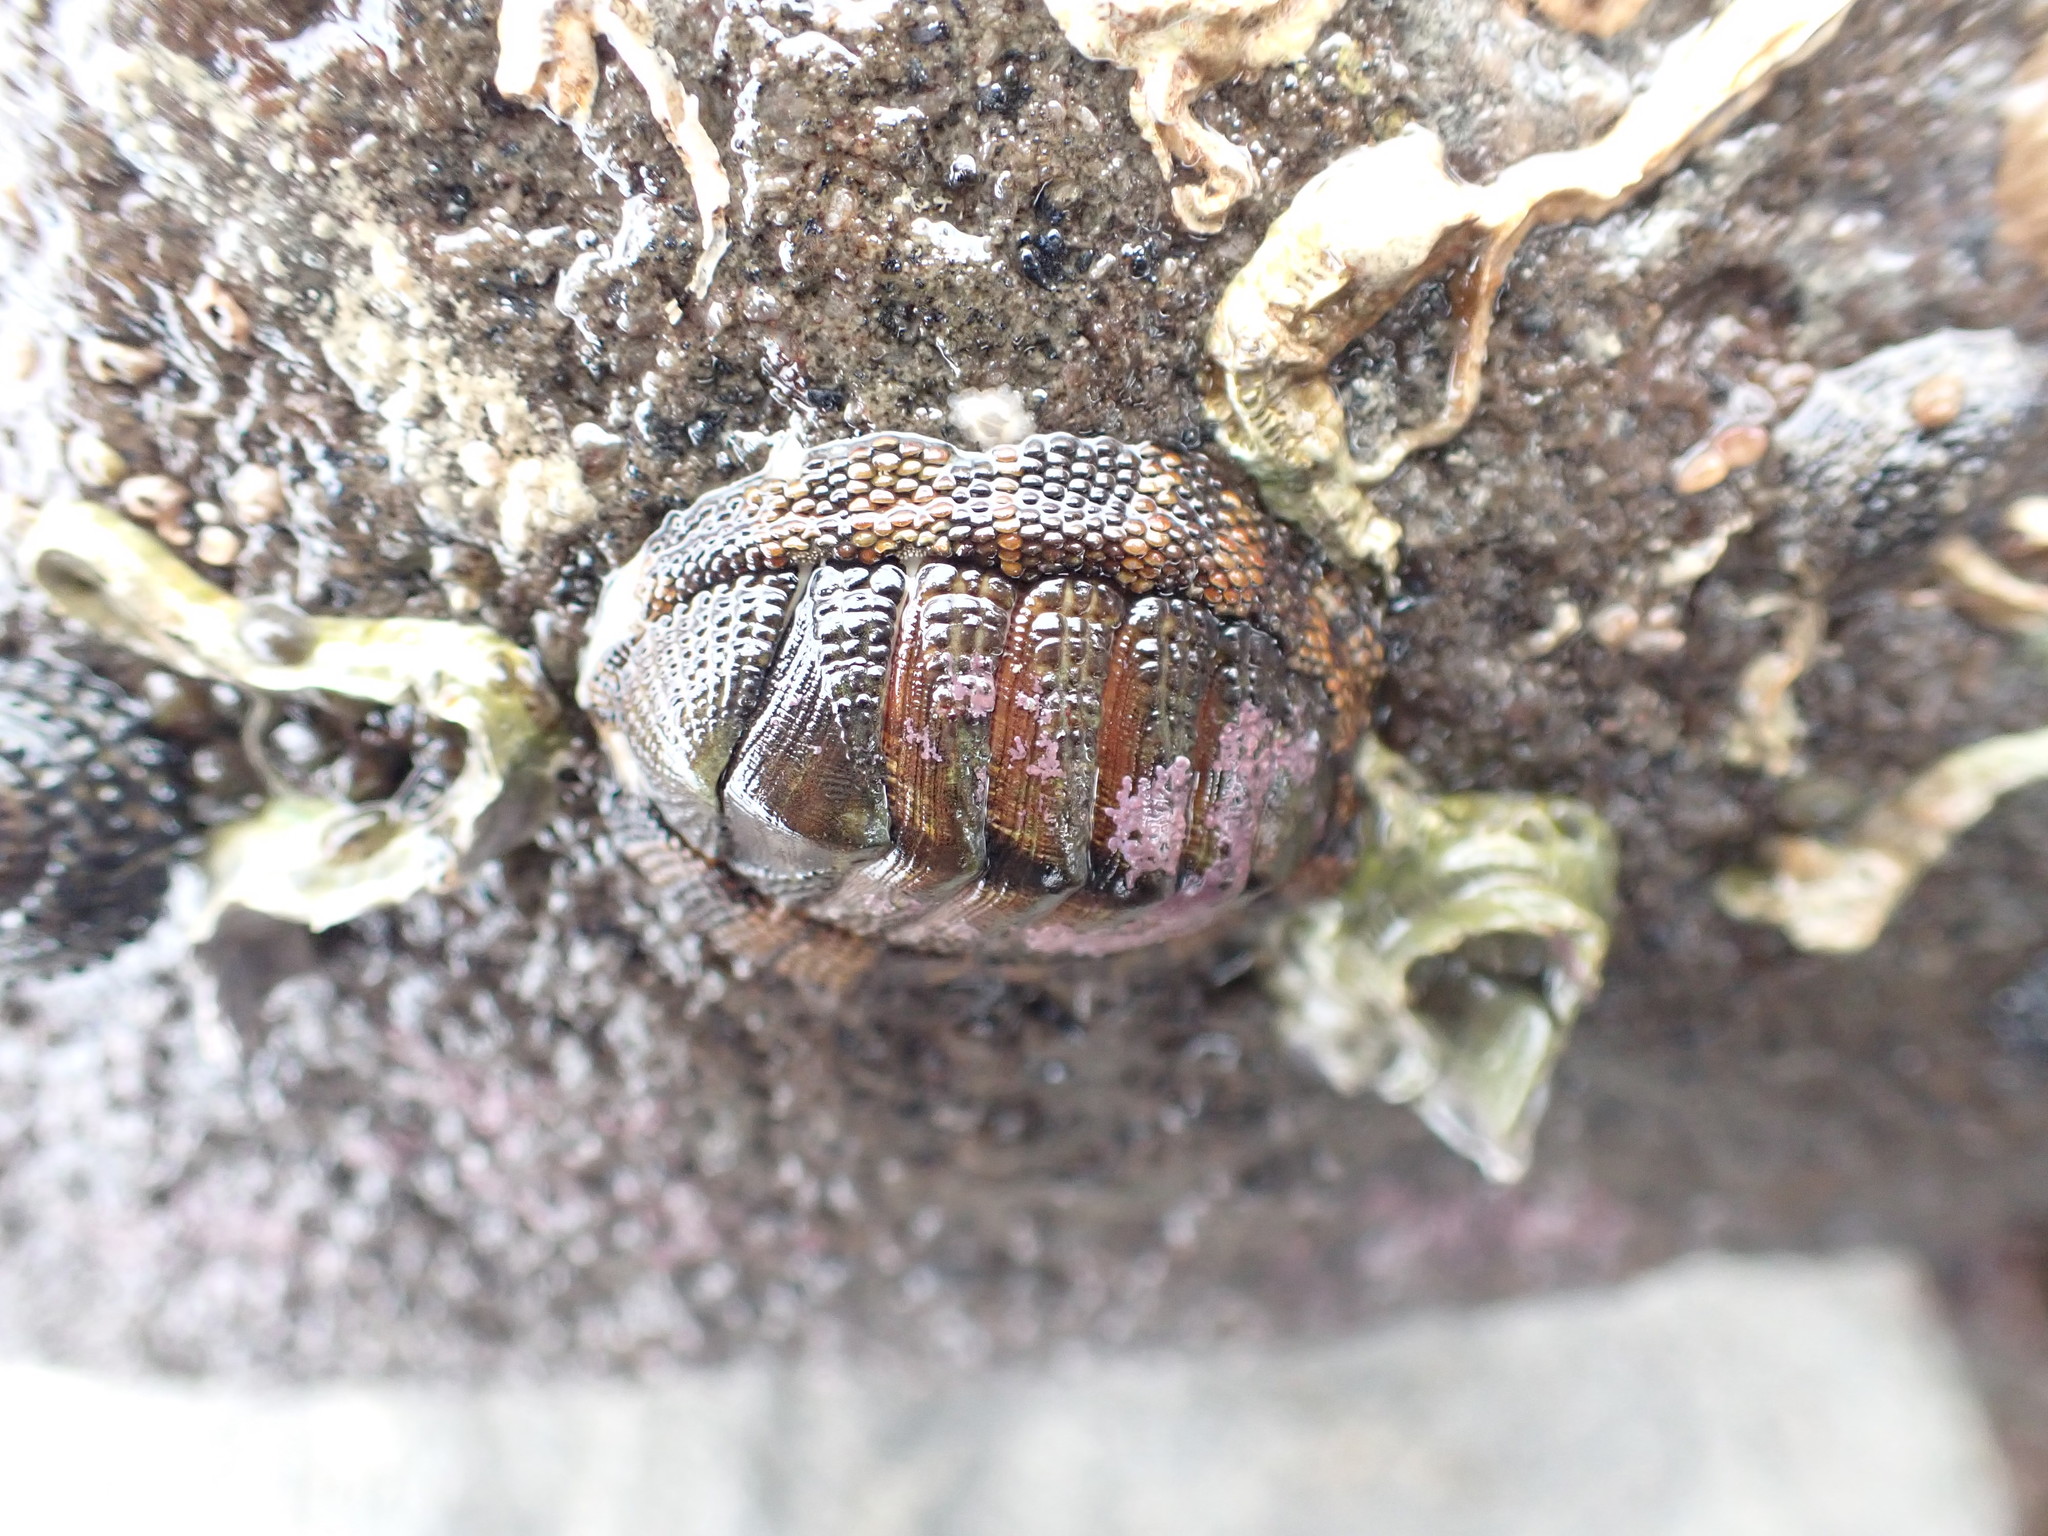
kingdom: Animalia
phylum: Mollusca
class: Polyplacophora
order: Chitonida
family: Chitonidae
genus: Sypharochiton
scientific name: Sypharochiton pelliserpentis
